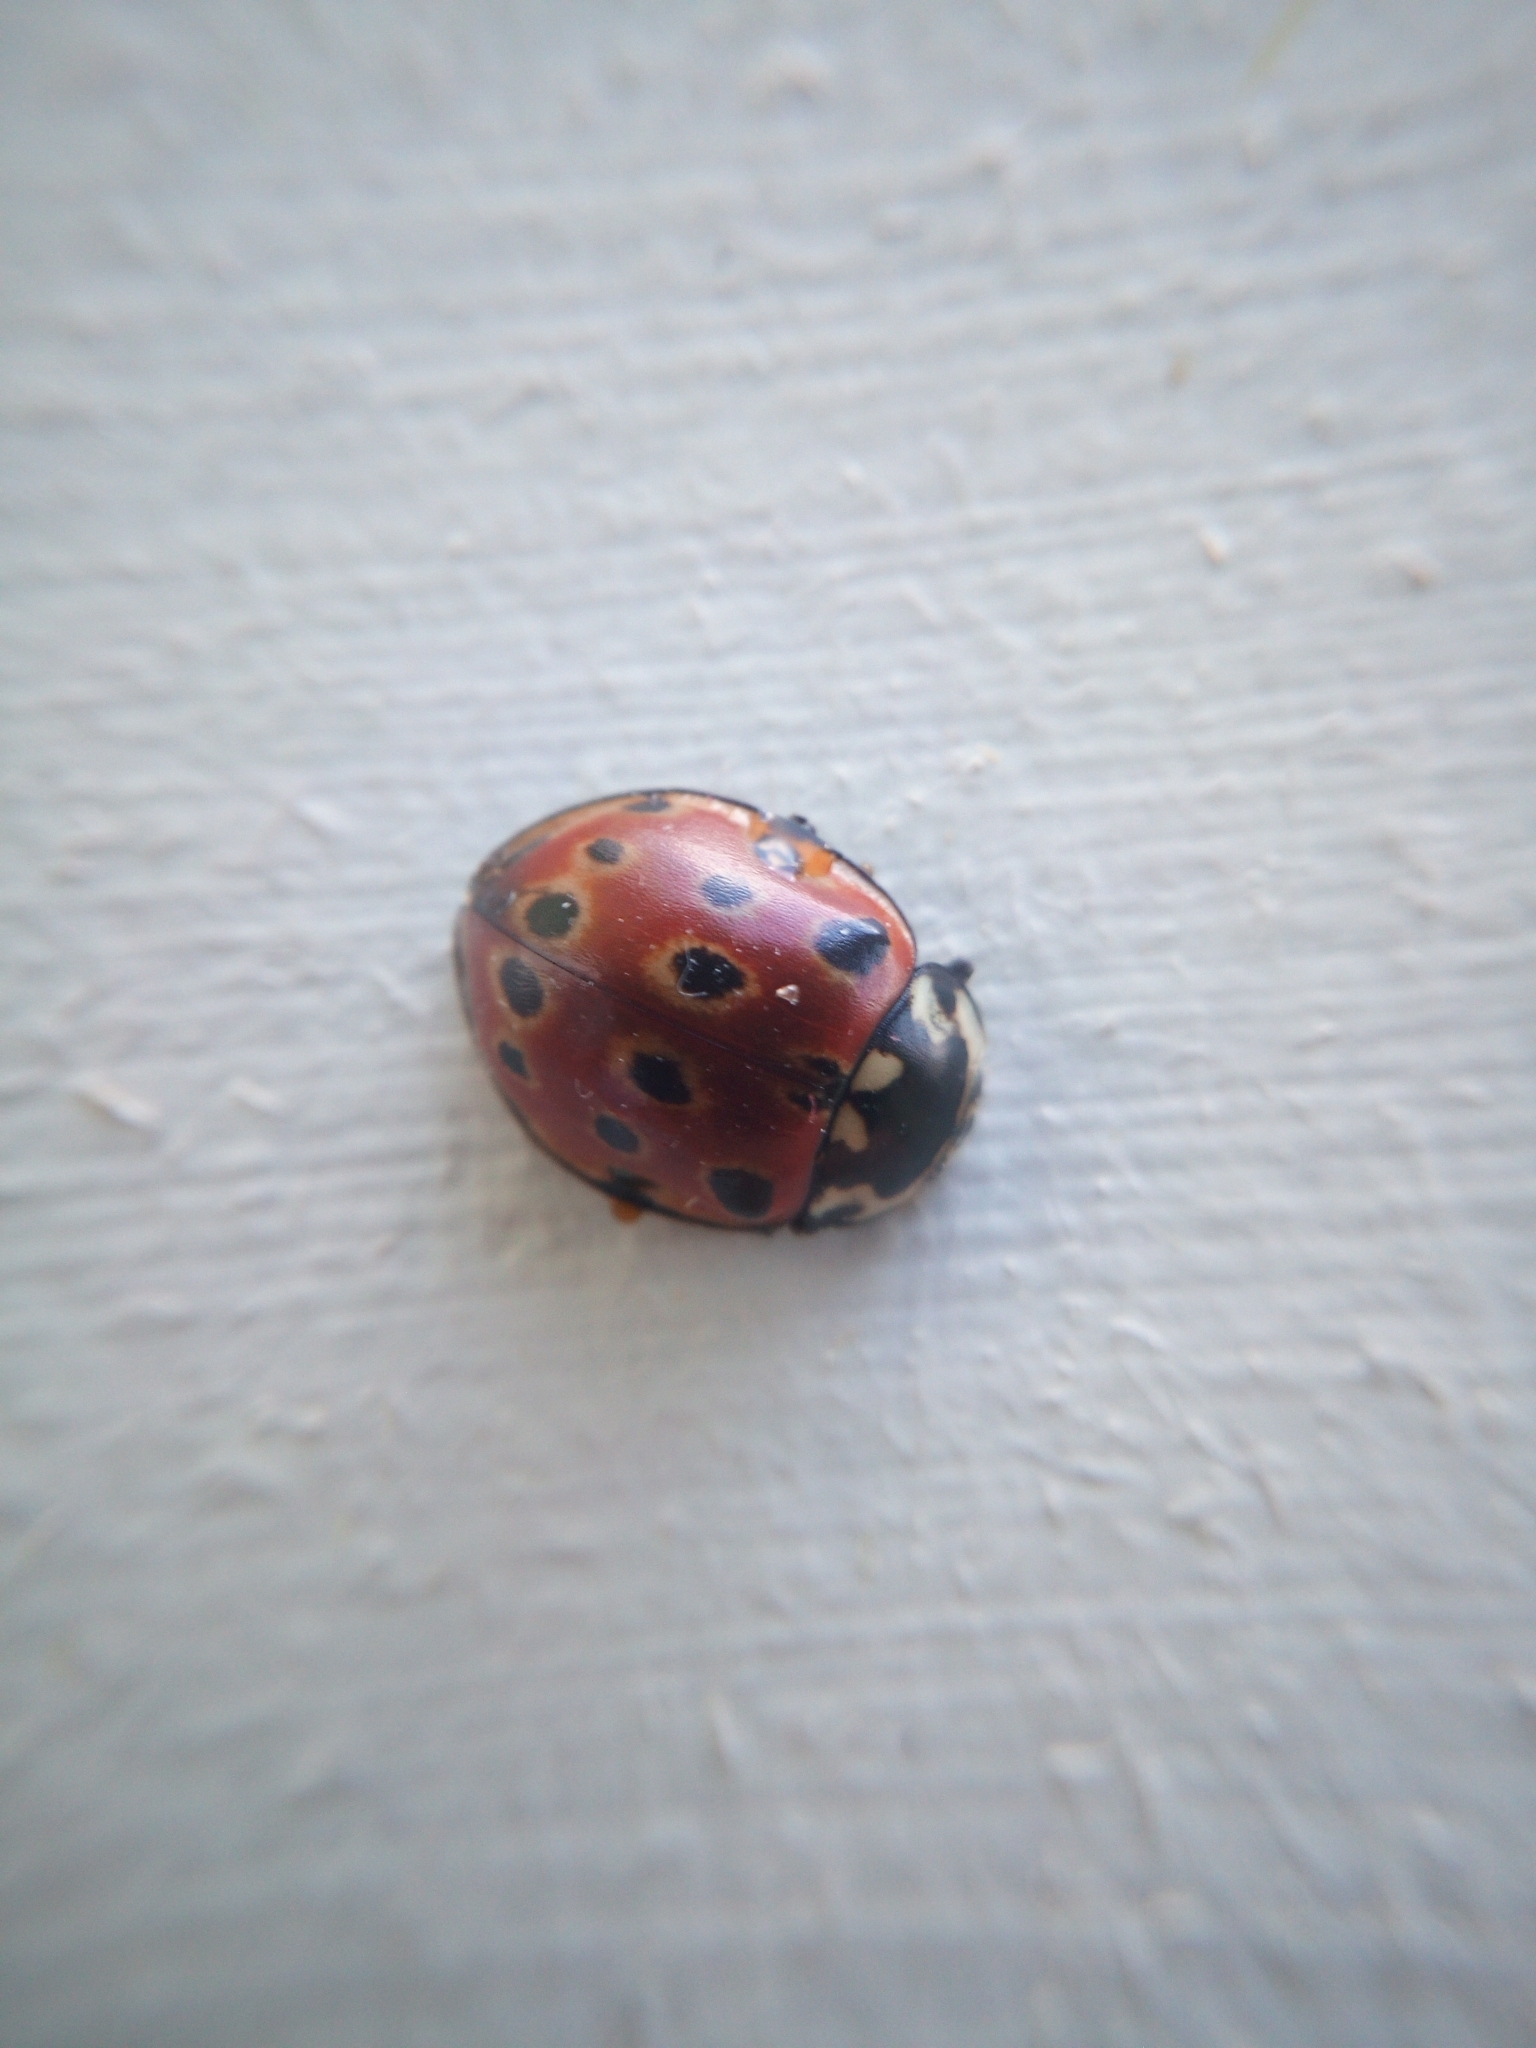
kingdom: Animalia
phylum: Arthropoda
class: Insecta
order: Coleoptera
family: Coccinellidae
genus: Anatis
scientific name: Anatis ocellata
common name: Eyed ladybird
